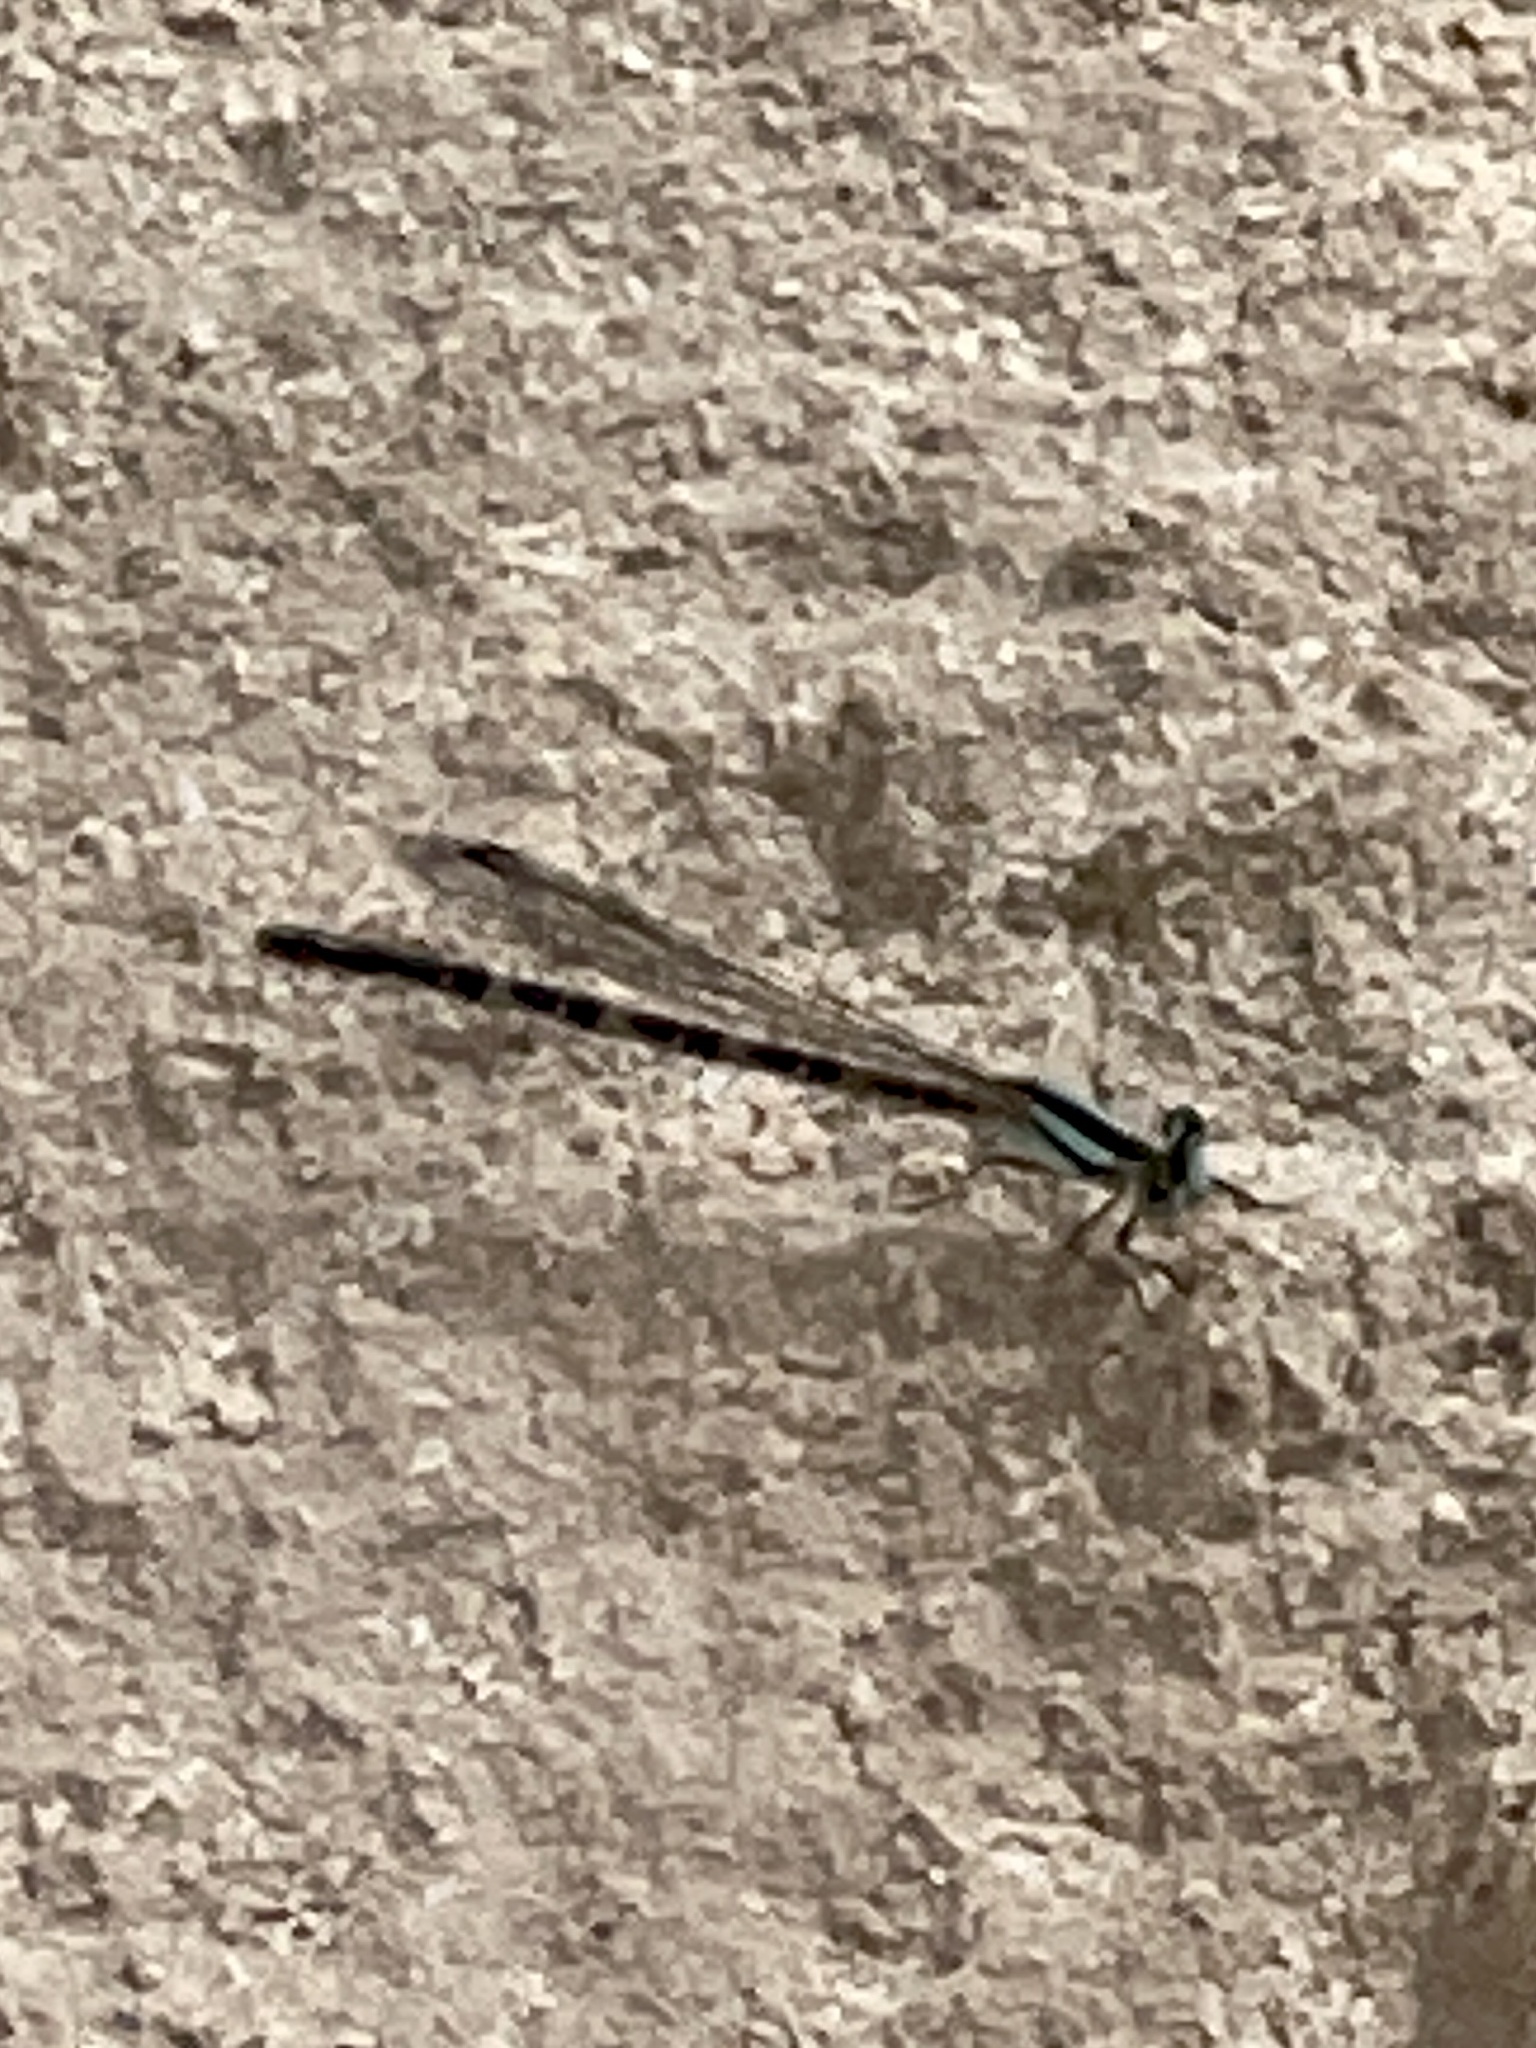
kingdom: Animalia
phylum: Arthropoda
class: Insecta
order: Odonata
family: Coenagrionidae
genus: Argia
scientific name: Argia alberta
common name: Paiute dancer
